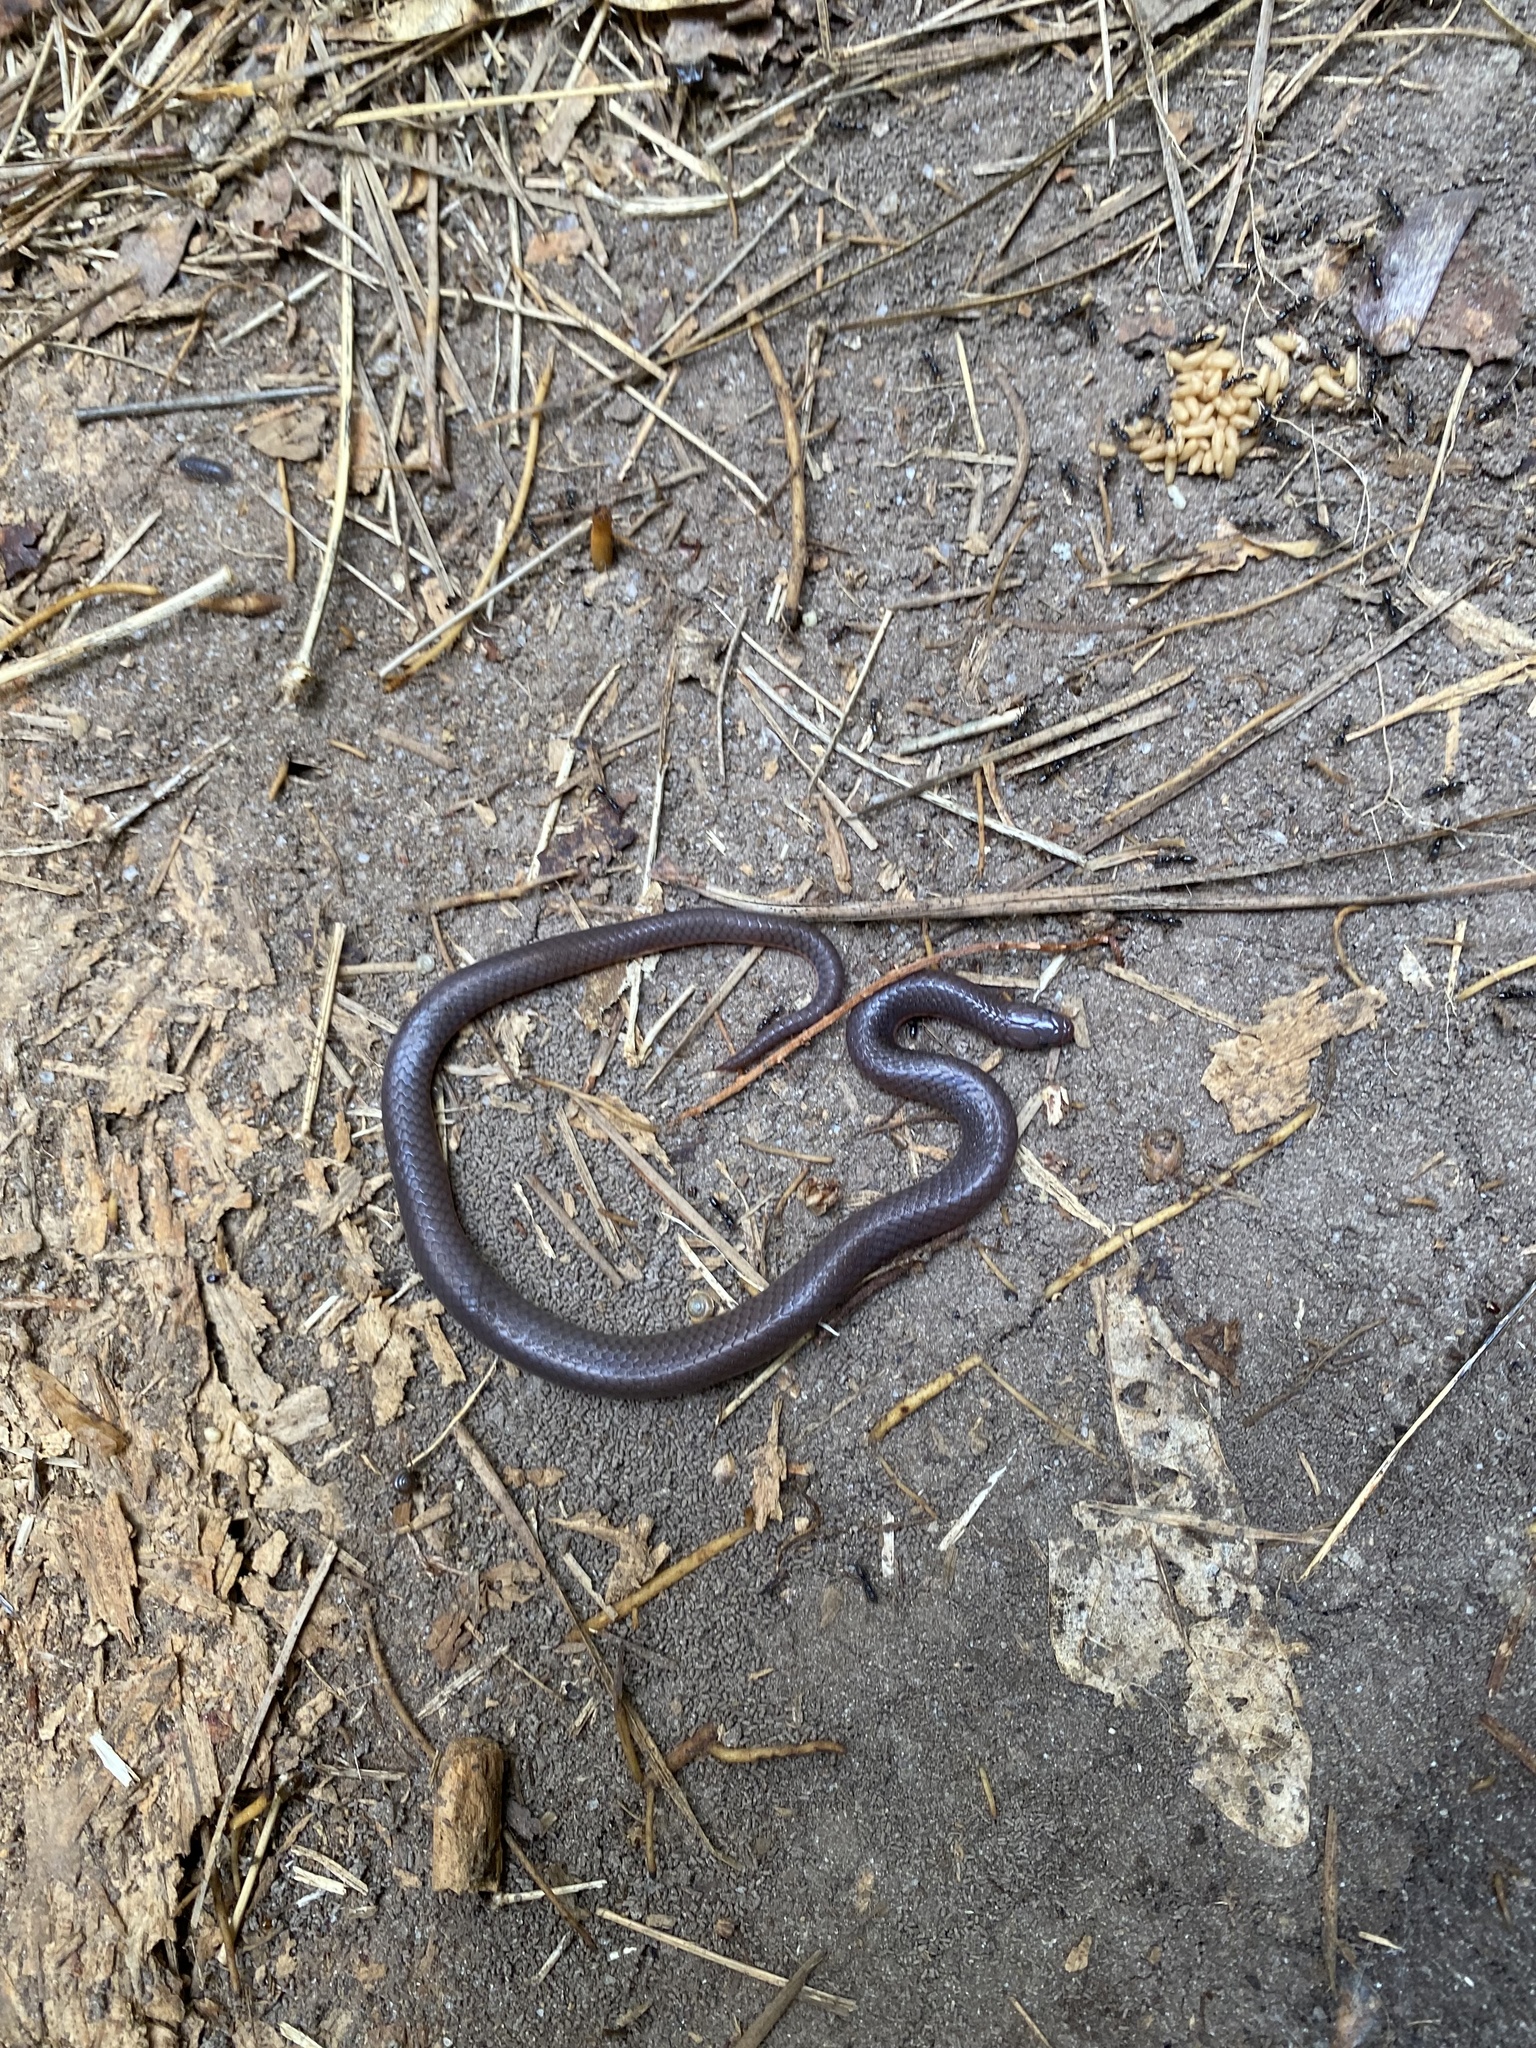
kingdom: Animalia
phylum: Chordata
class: Squamata
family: Colubridae
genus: Carphophis
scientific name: Carphophis amoenus
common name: Eastern worm snake
